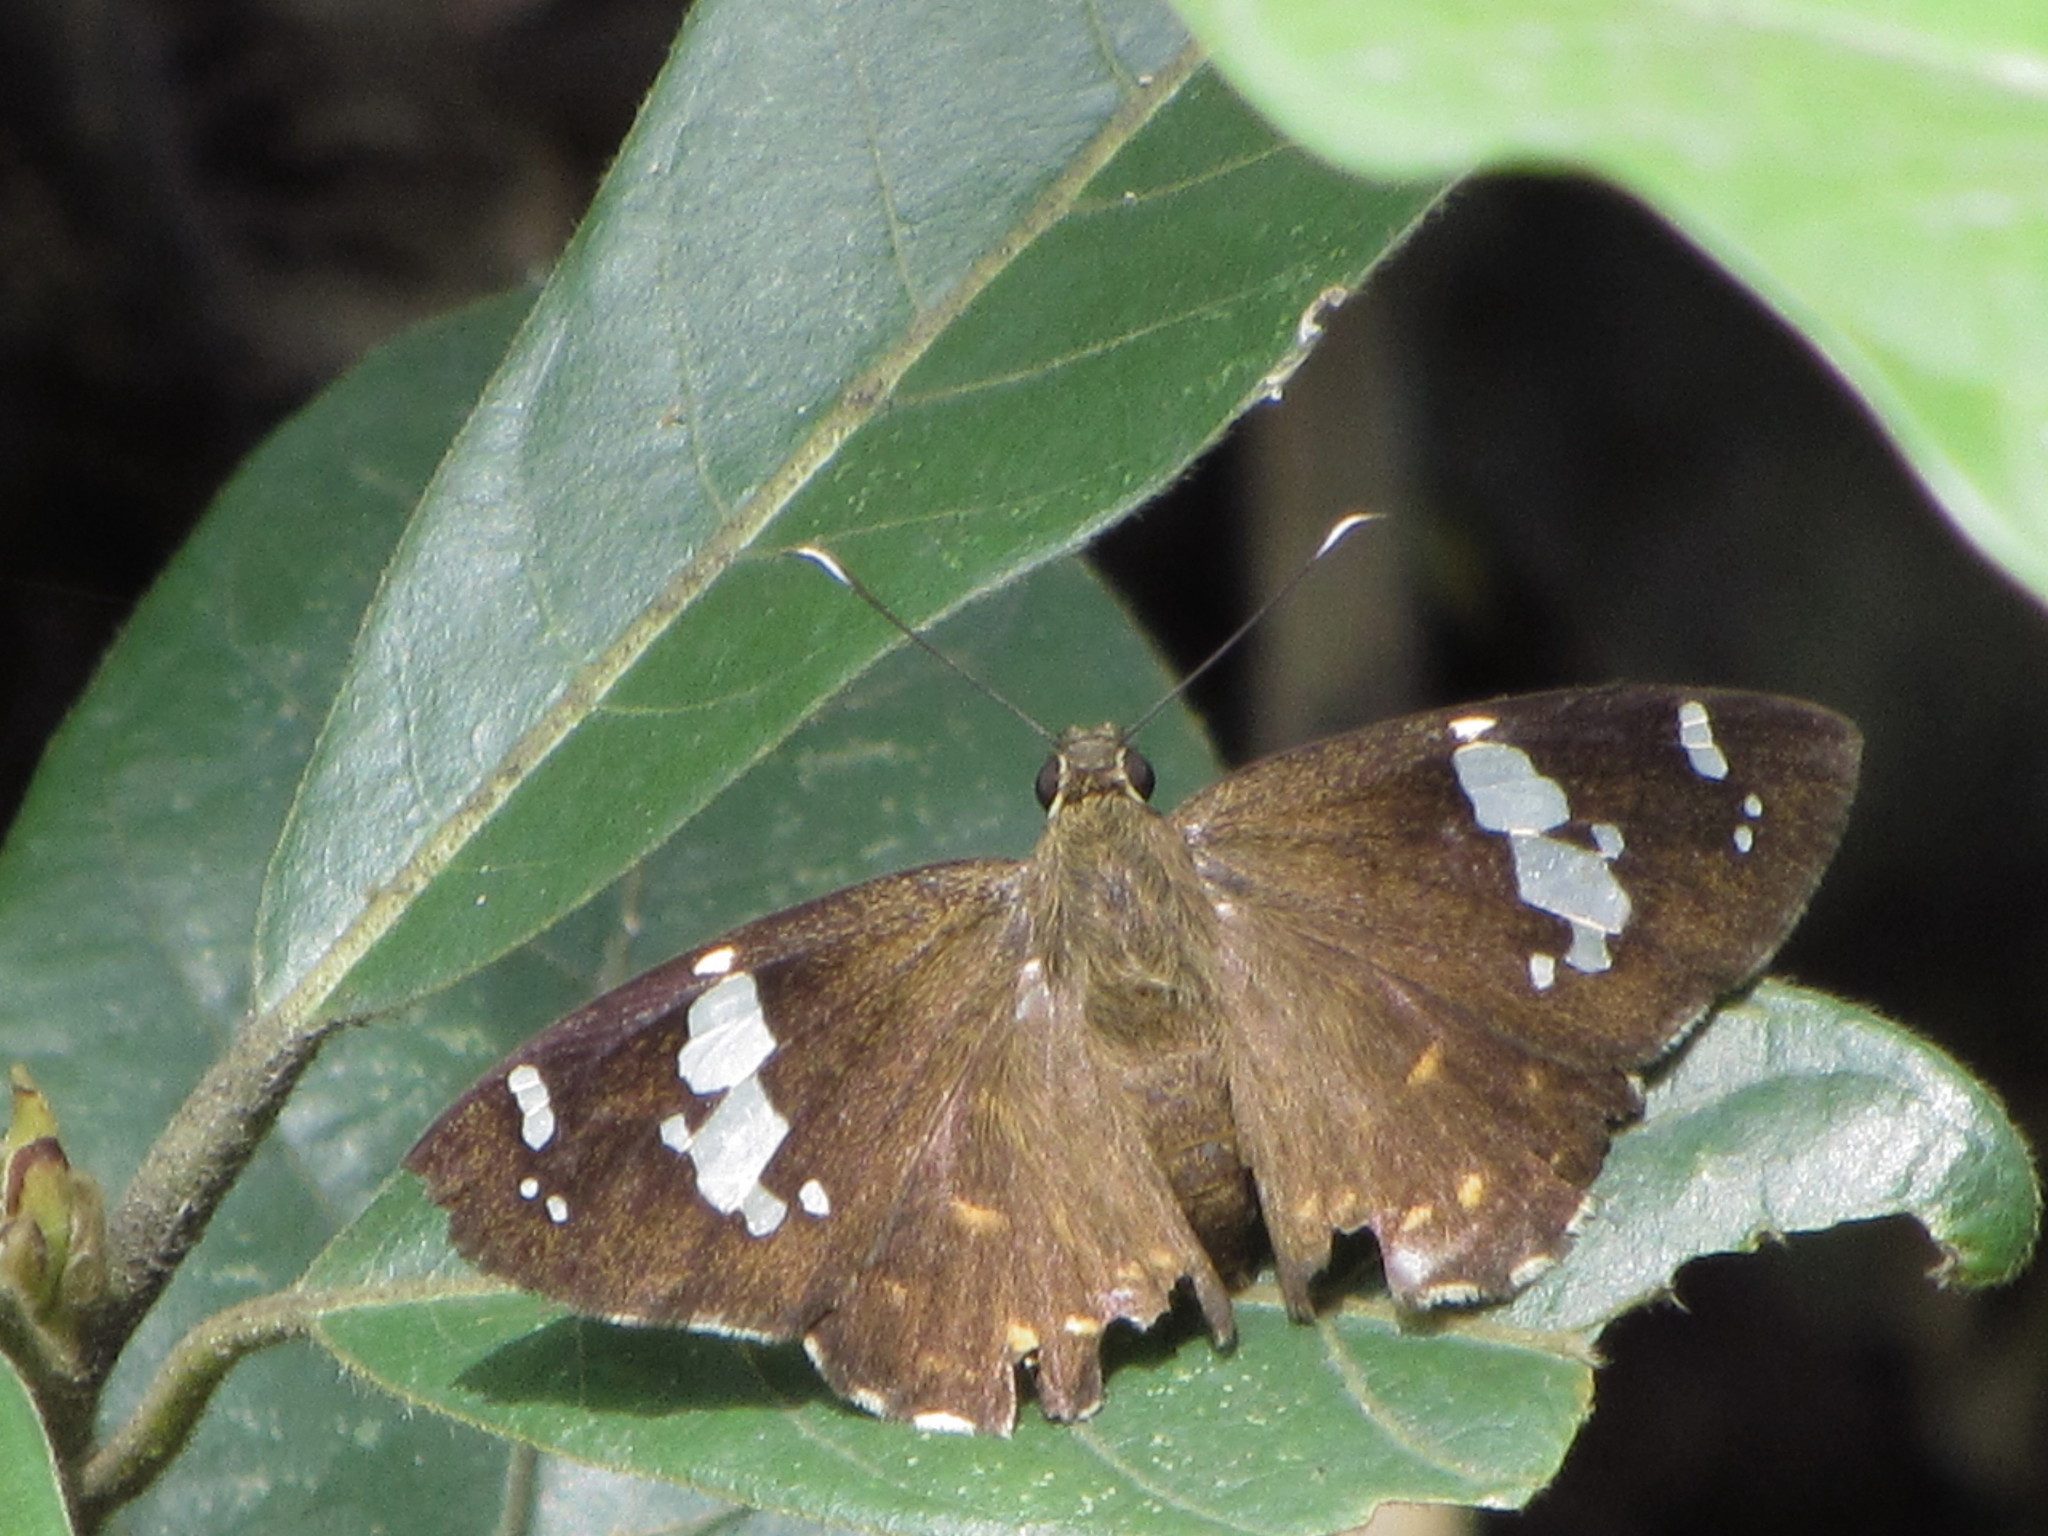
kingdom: Animalia
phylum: Arthropoda
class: Insecta
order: Lepidoptera
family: Hesperiidae
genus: Celaenorrhinus
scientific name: Celaenorrhinus leucocera
